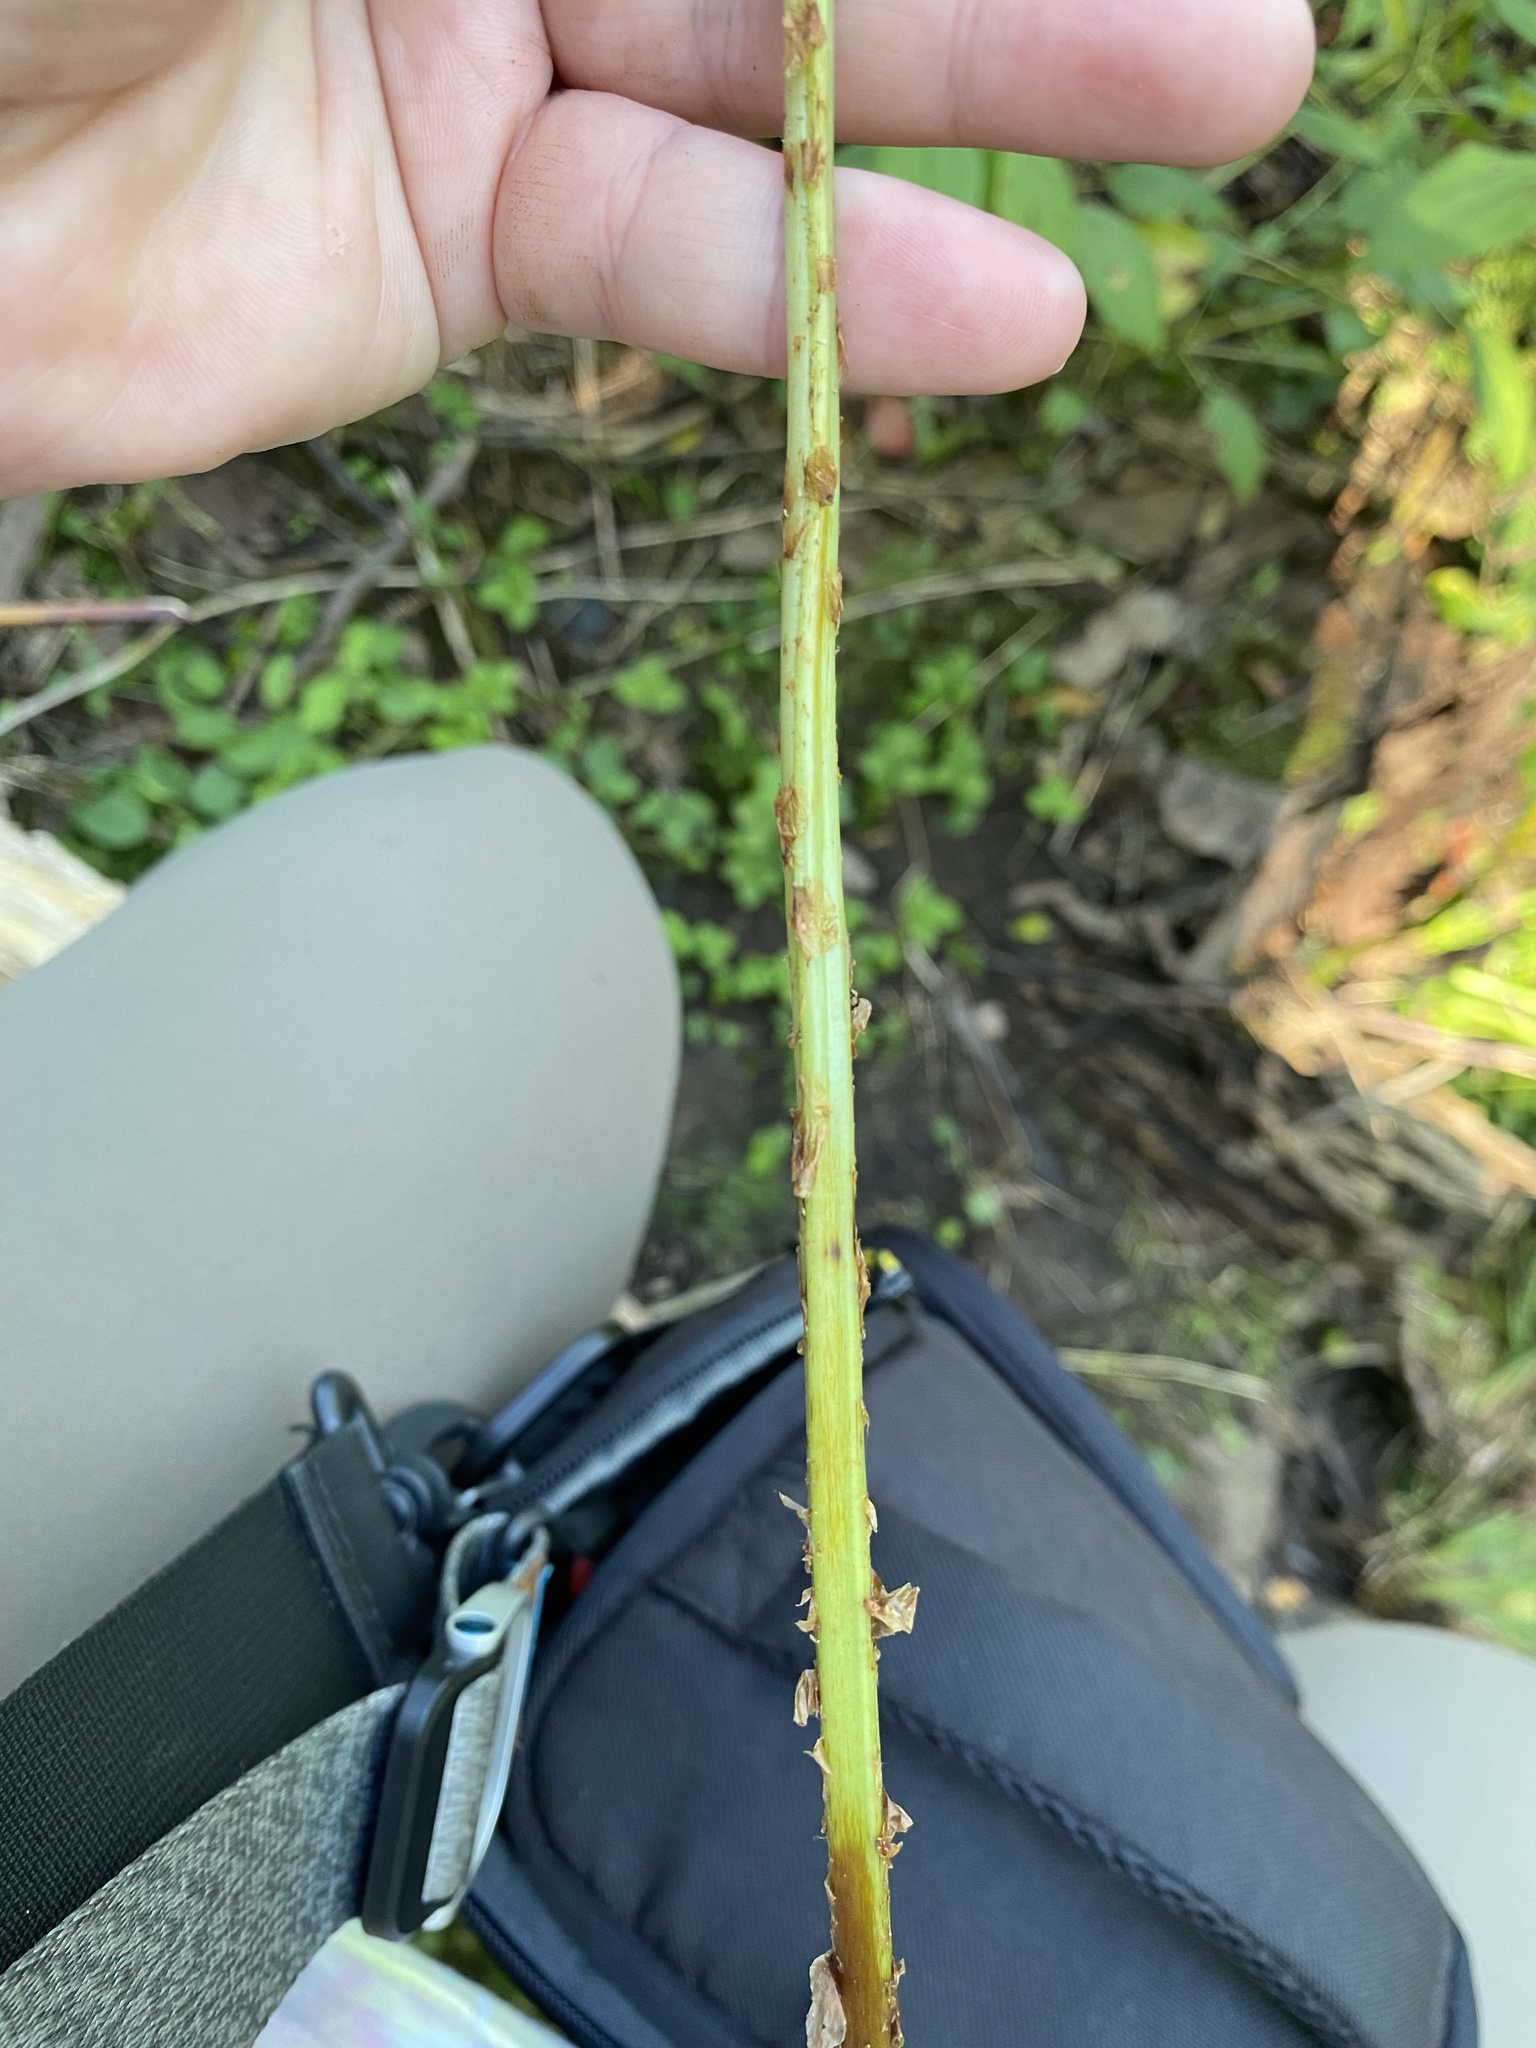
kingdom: Plantae
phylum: Tracheophyta
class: Polypodiopsida
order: Polypodiales
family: Dryopteridaceae
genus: Dryopteris
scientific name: Dryopteris cristata
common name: Crested wood fern
